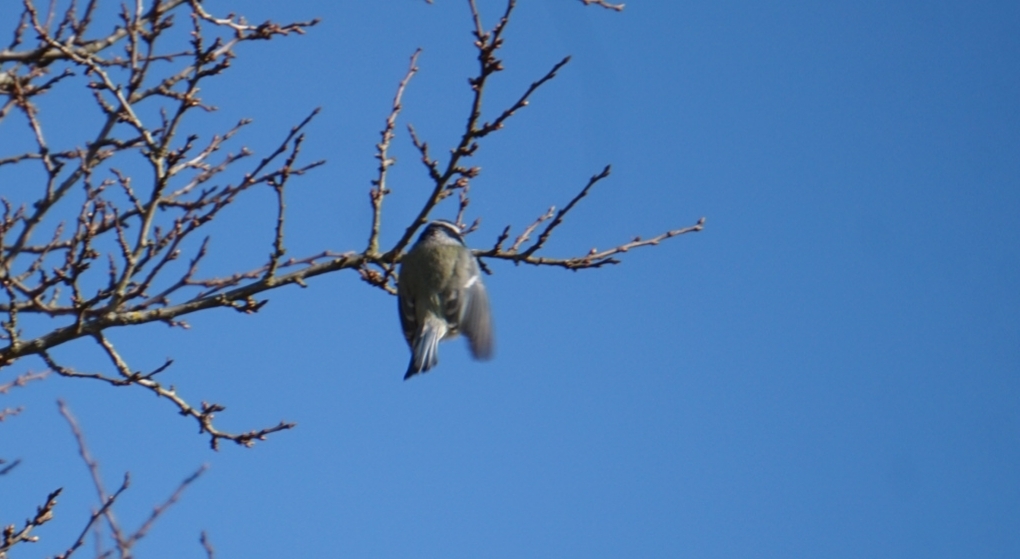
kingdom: Animalia
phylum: Chordata
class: Aves
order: Passeriformes
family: Paridae
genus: Cyanistes
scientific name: Cyanistes caeruleus
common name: Eurasian blue tit
